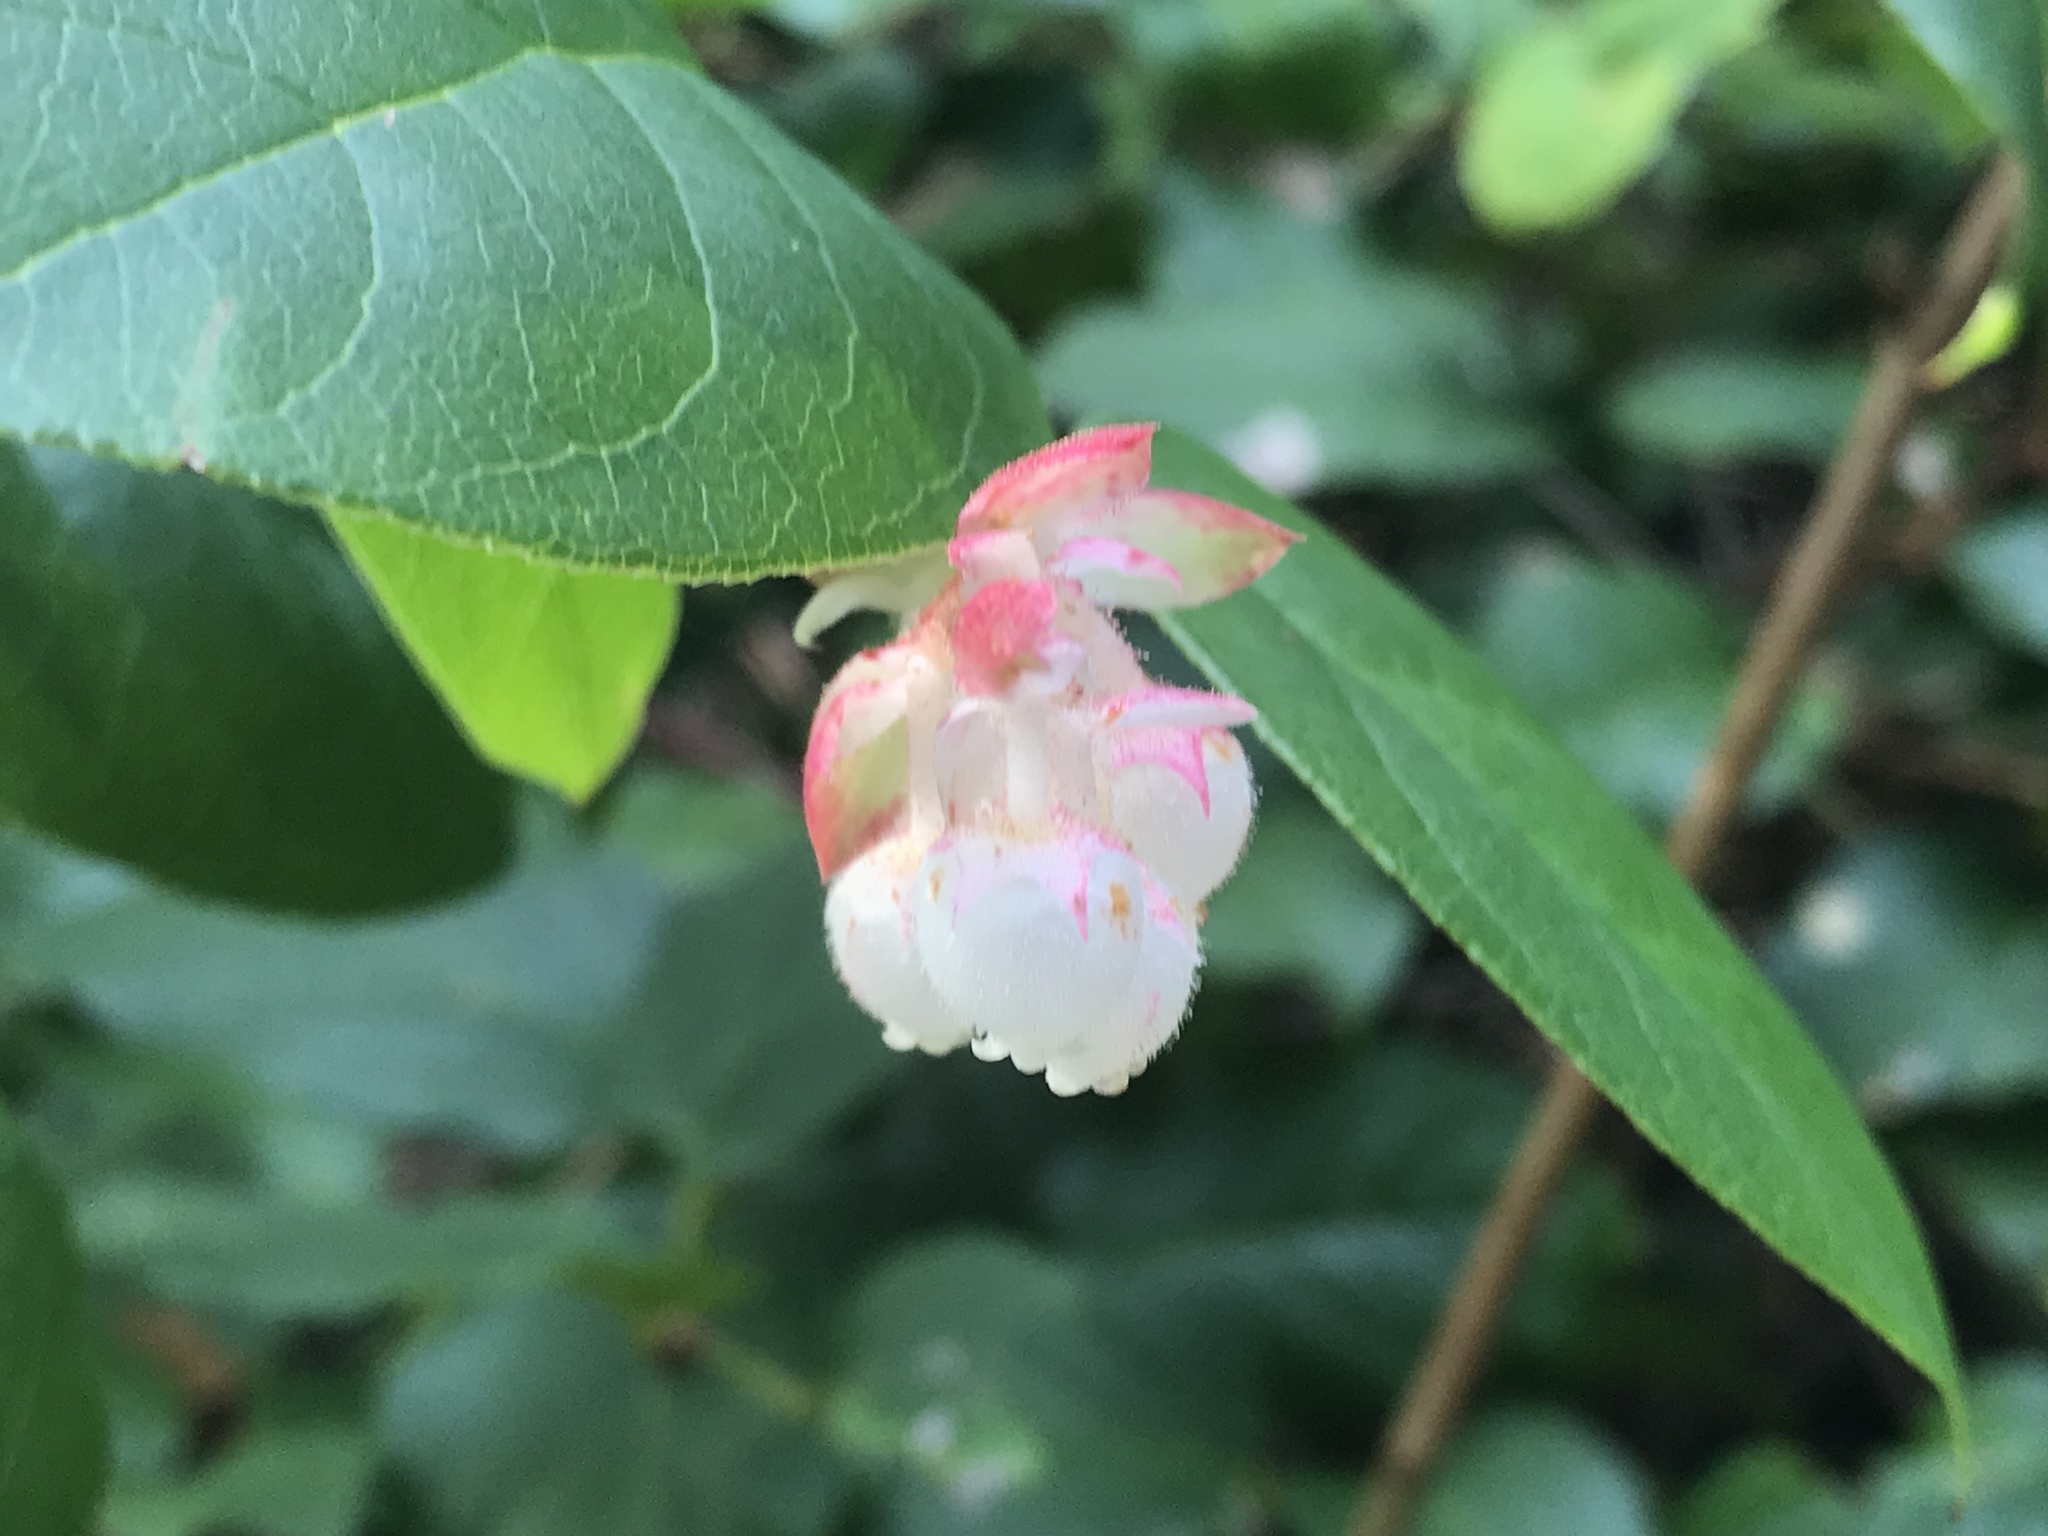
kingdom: Plantae
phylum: Tracheophyta
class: Magnoliopsida
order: Ericales
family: Ericaceae
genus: Gaultheria
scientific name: Gaultheria shallon
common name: Shallon
